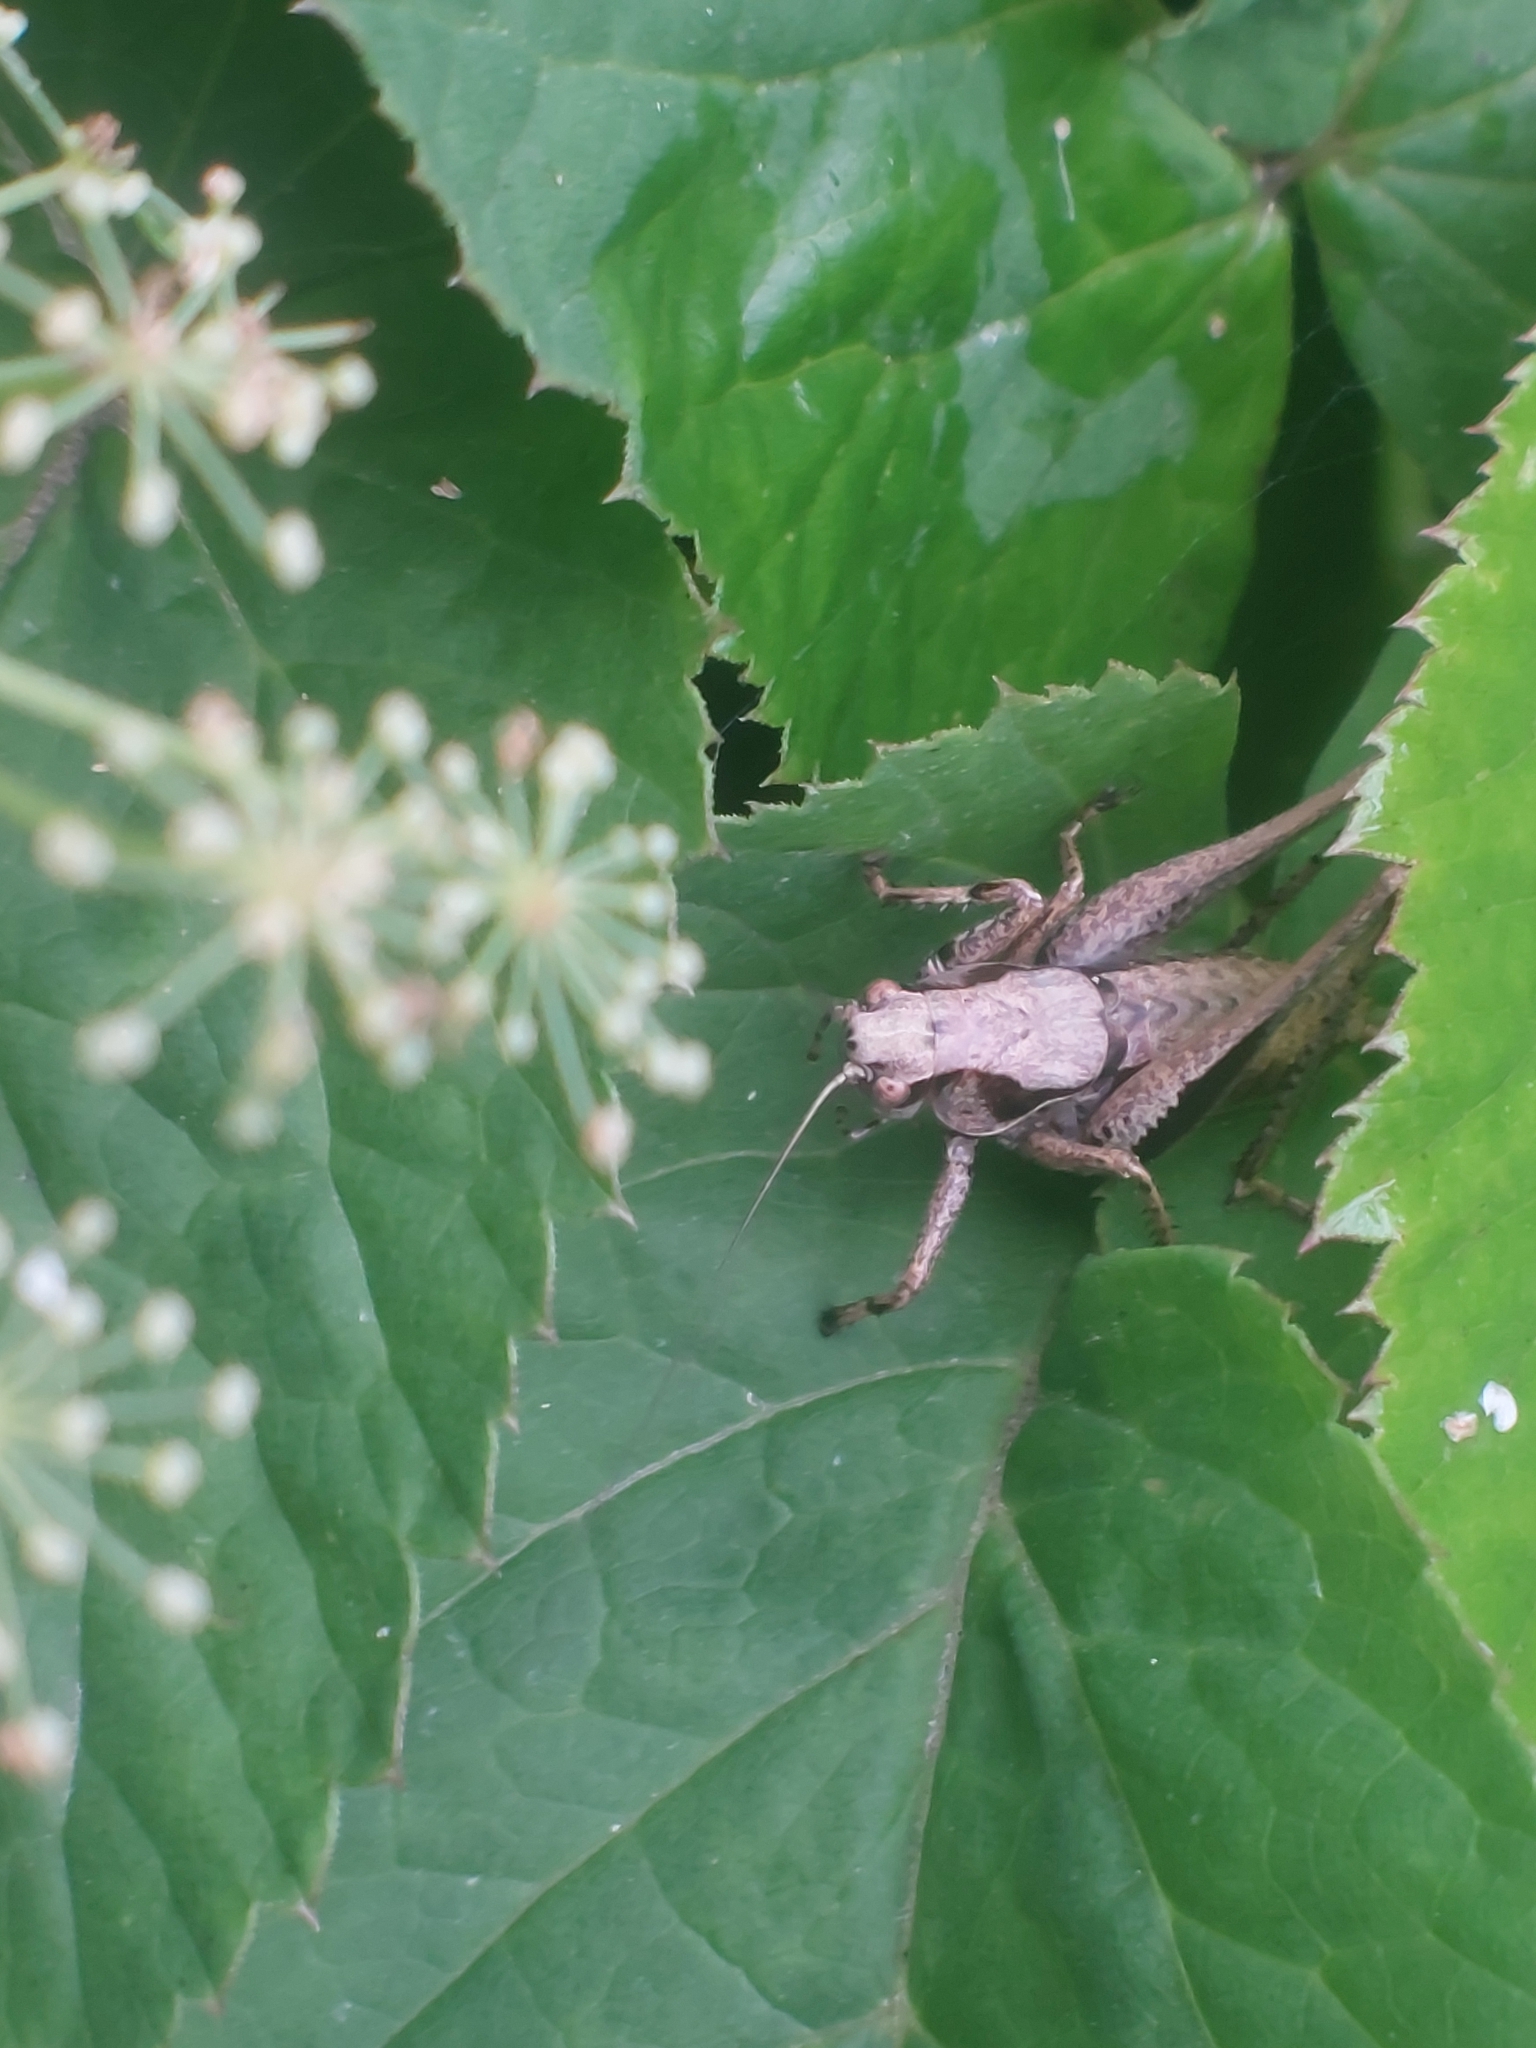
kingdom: Animalia
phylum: Arthropoda
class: Insecta
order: Orthoptera
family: Tettigoniidae
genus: Pholidoptera
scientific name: Pholidoptera griseoaptera
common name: Dark bush-cricket
